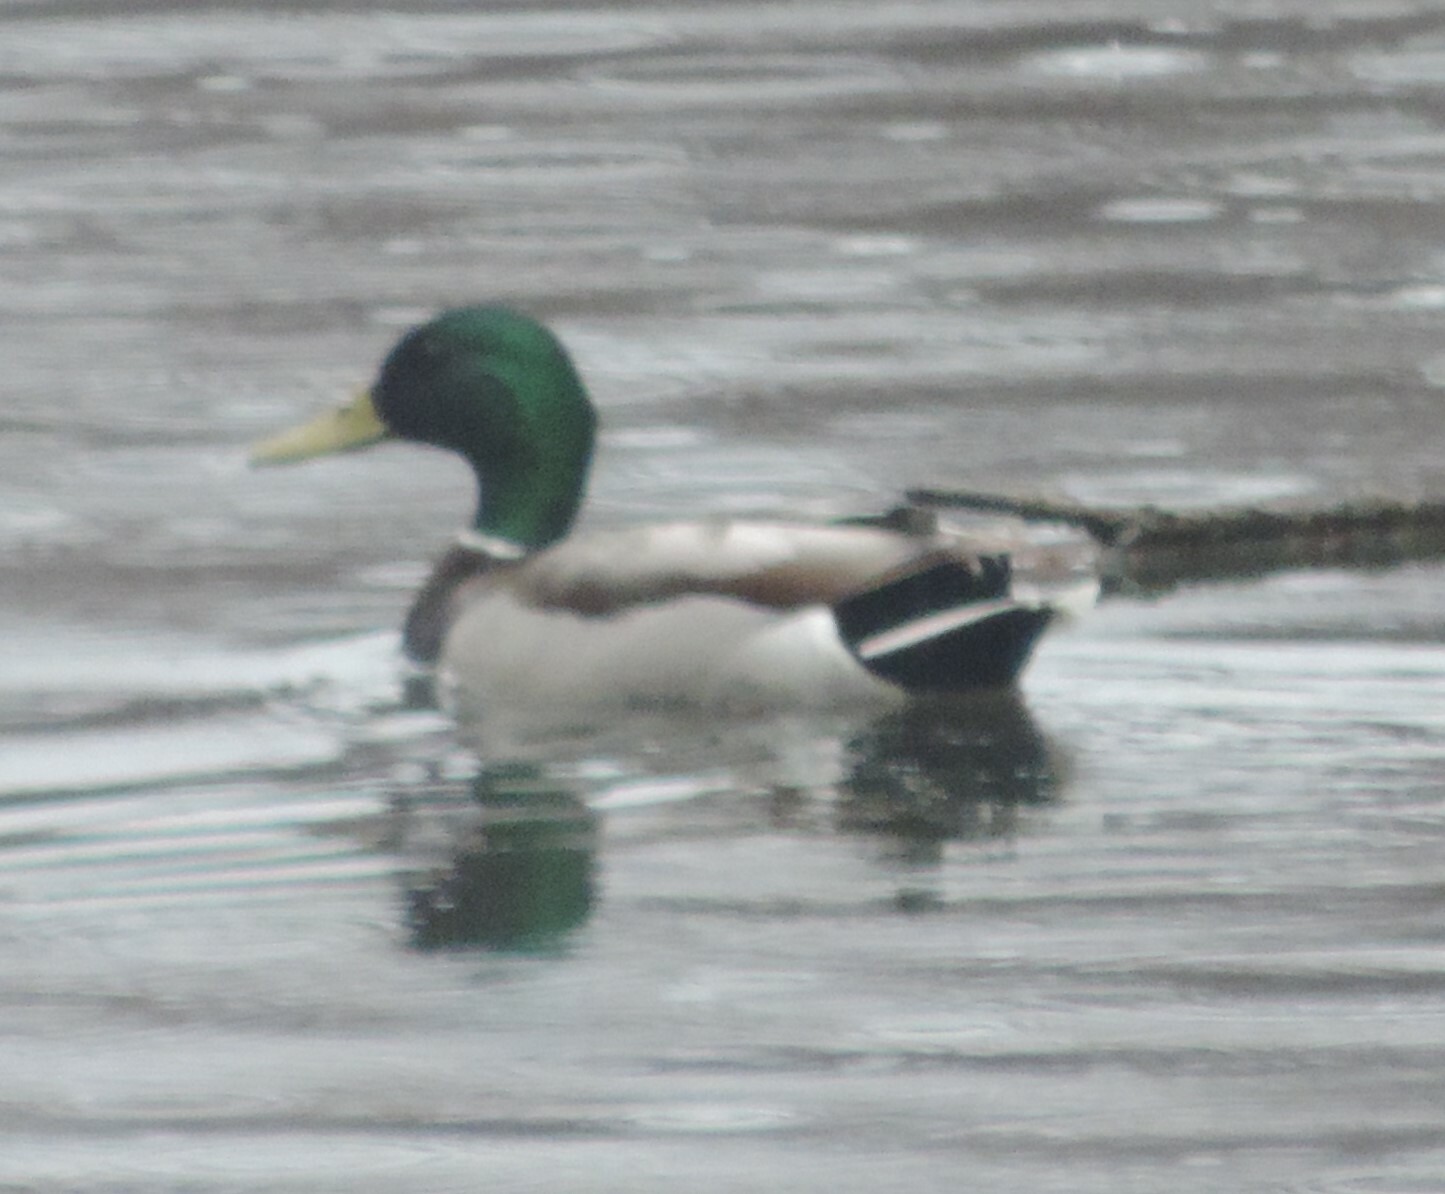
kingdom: Animalia
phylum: Chordata
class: Aves
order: Anseriformes
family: Anatidae
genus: Anas
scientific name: Anas platyrhynchos
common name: Mallard
